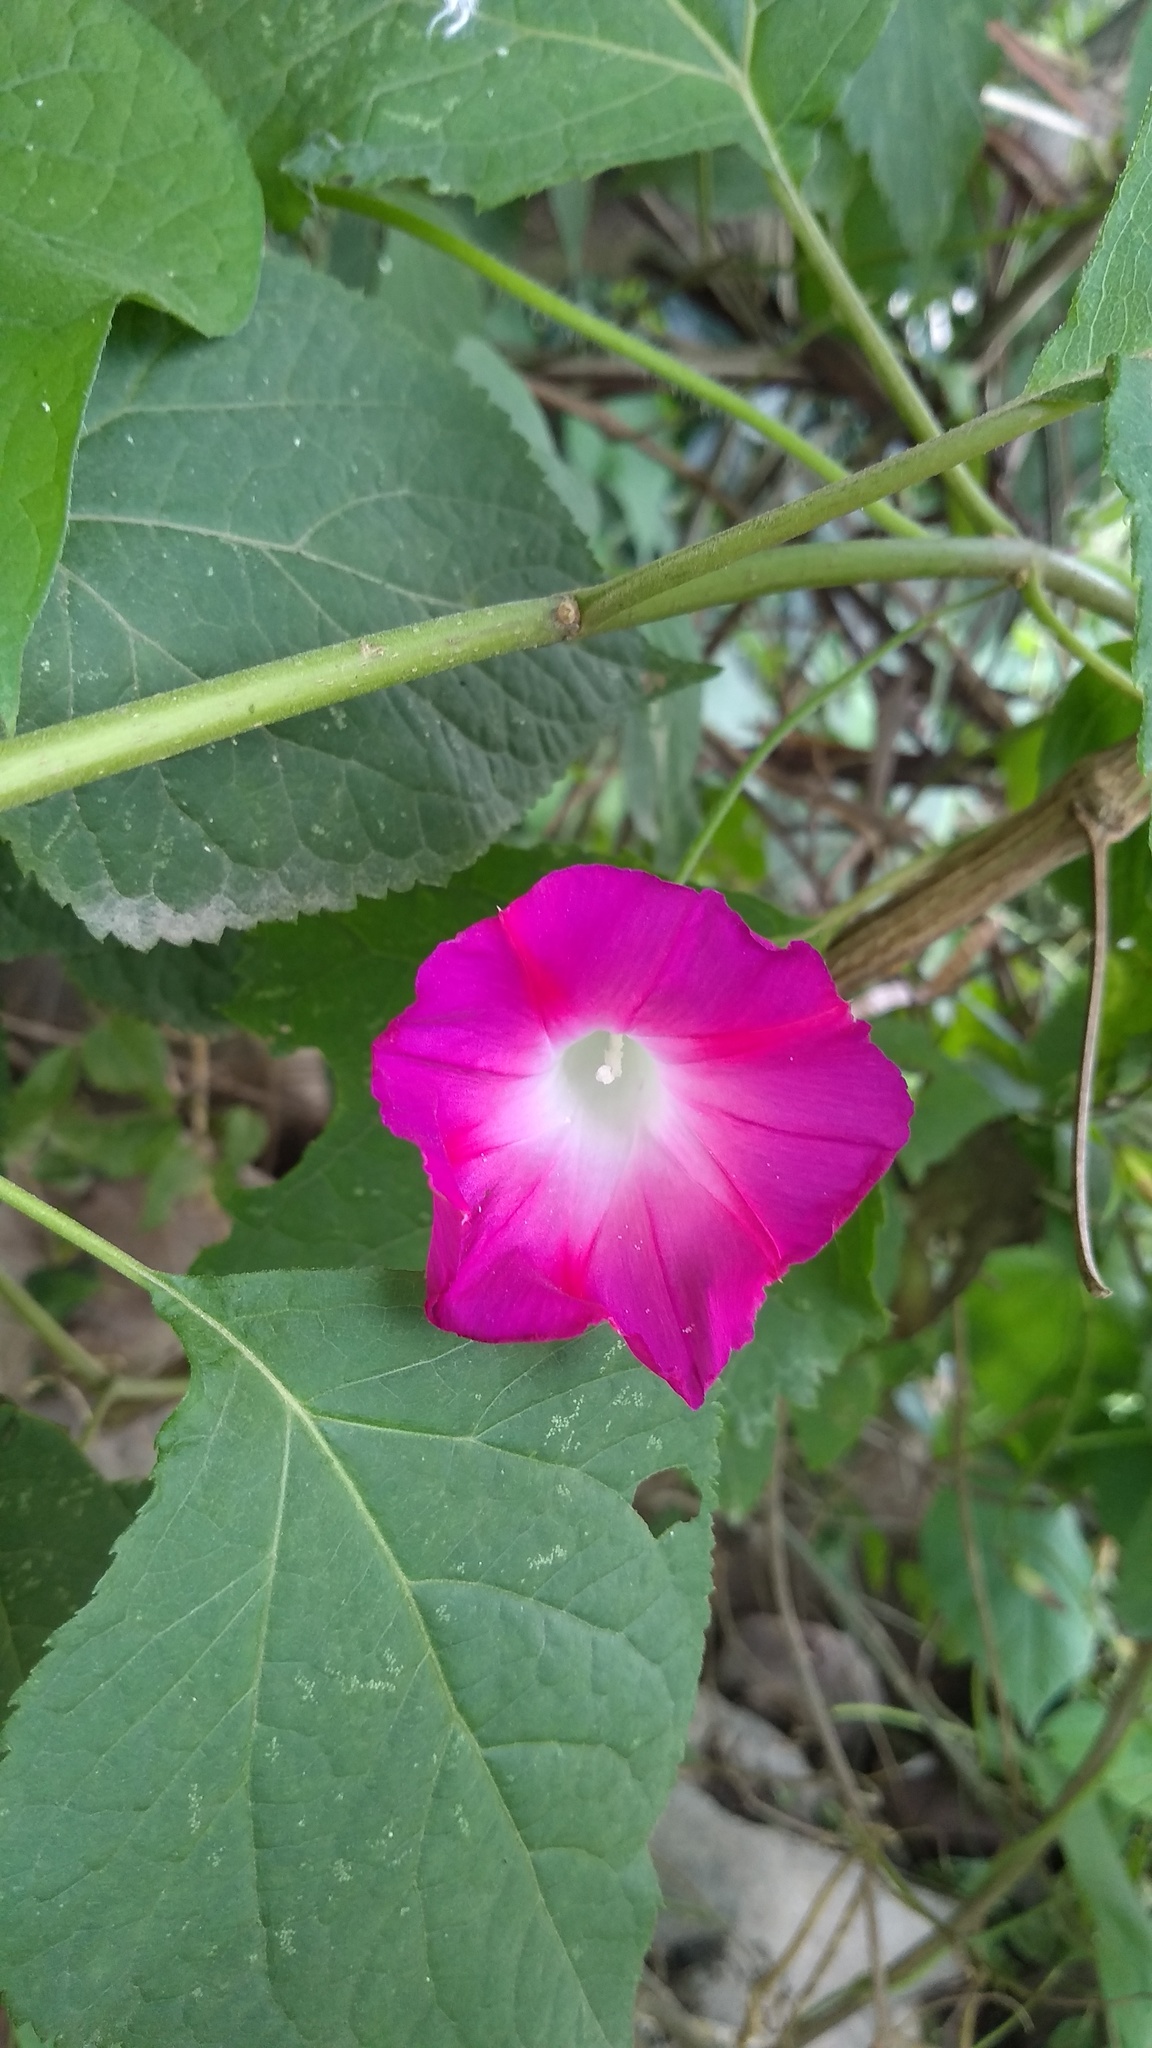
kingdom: Plantae
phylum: Tracheophyta
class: Magnoliopsida
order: Solanales
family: Convolvulaceae
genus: Ipomoea
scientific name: Ipomoea purpurea
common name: Common morning-glory
